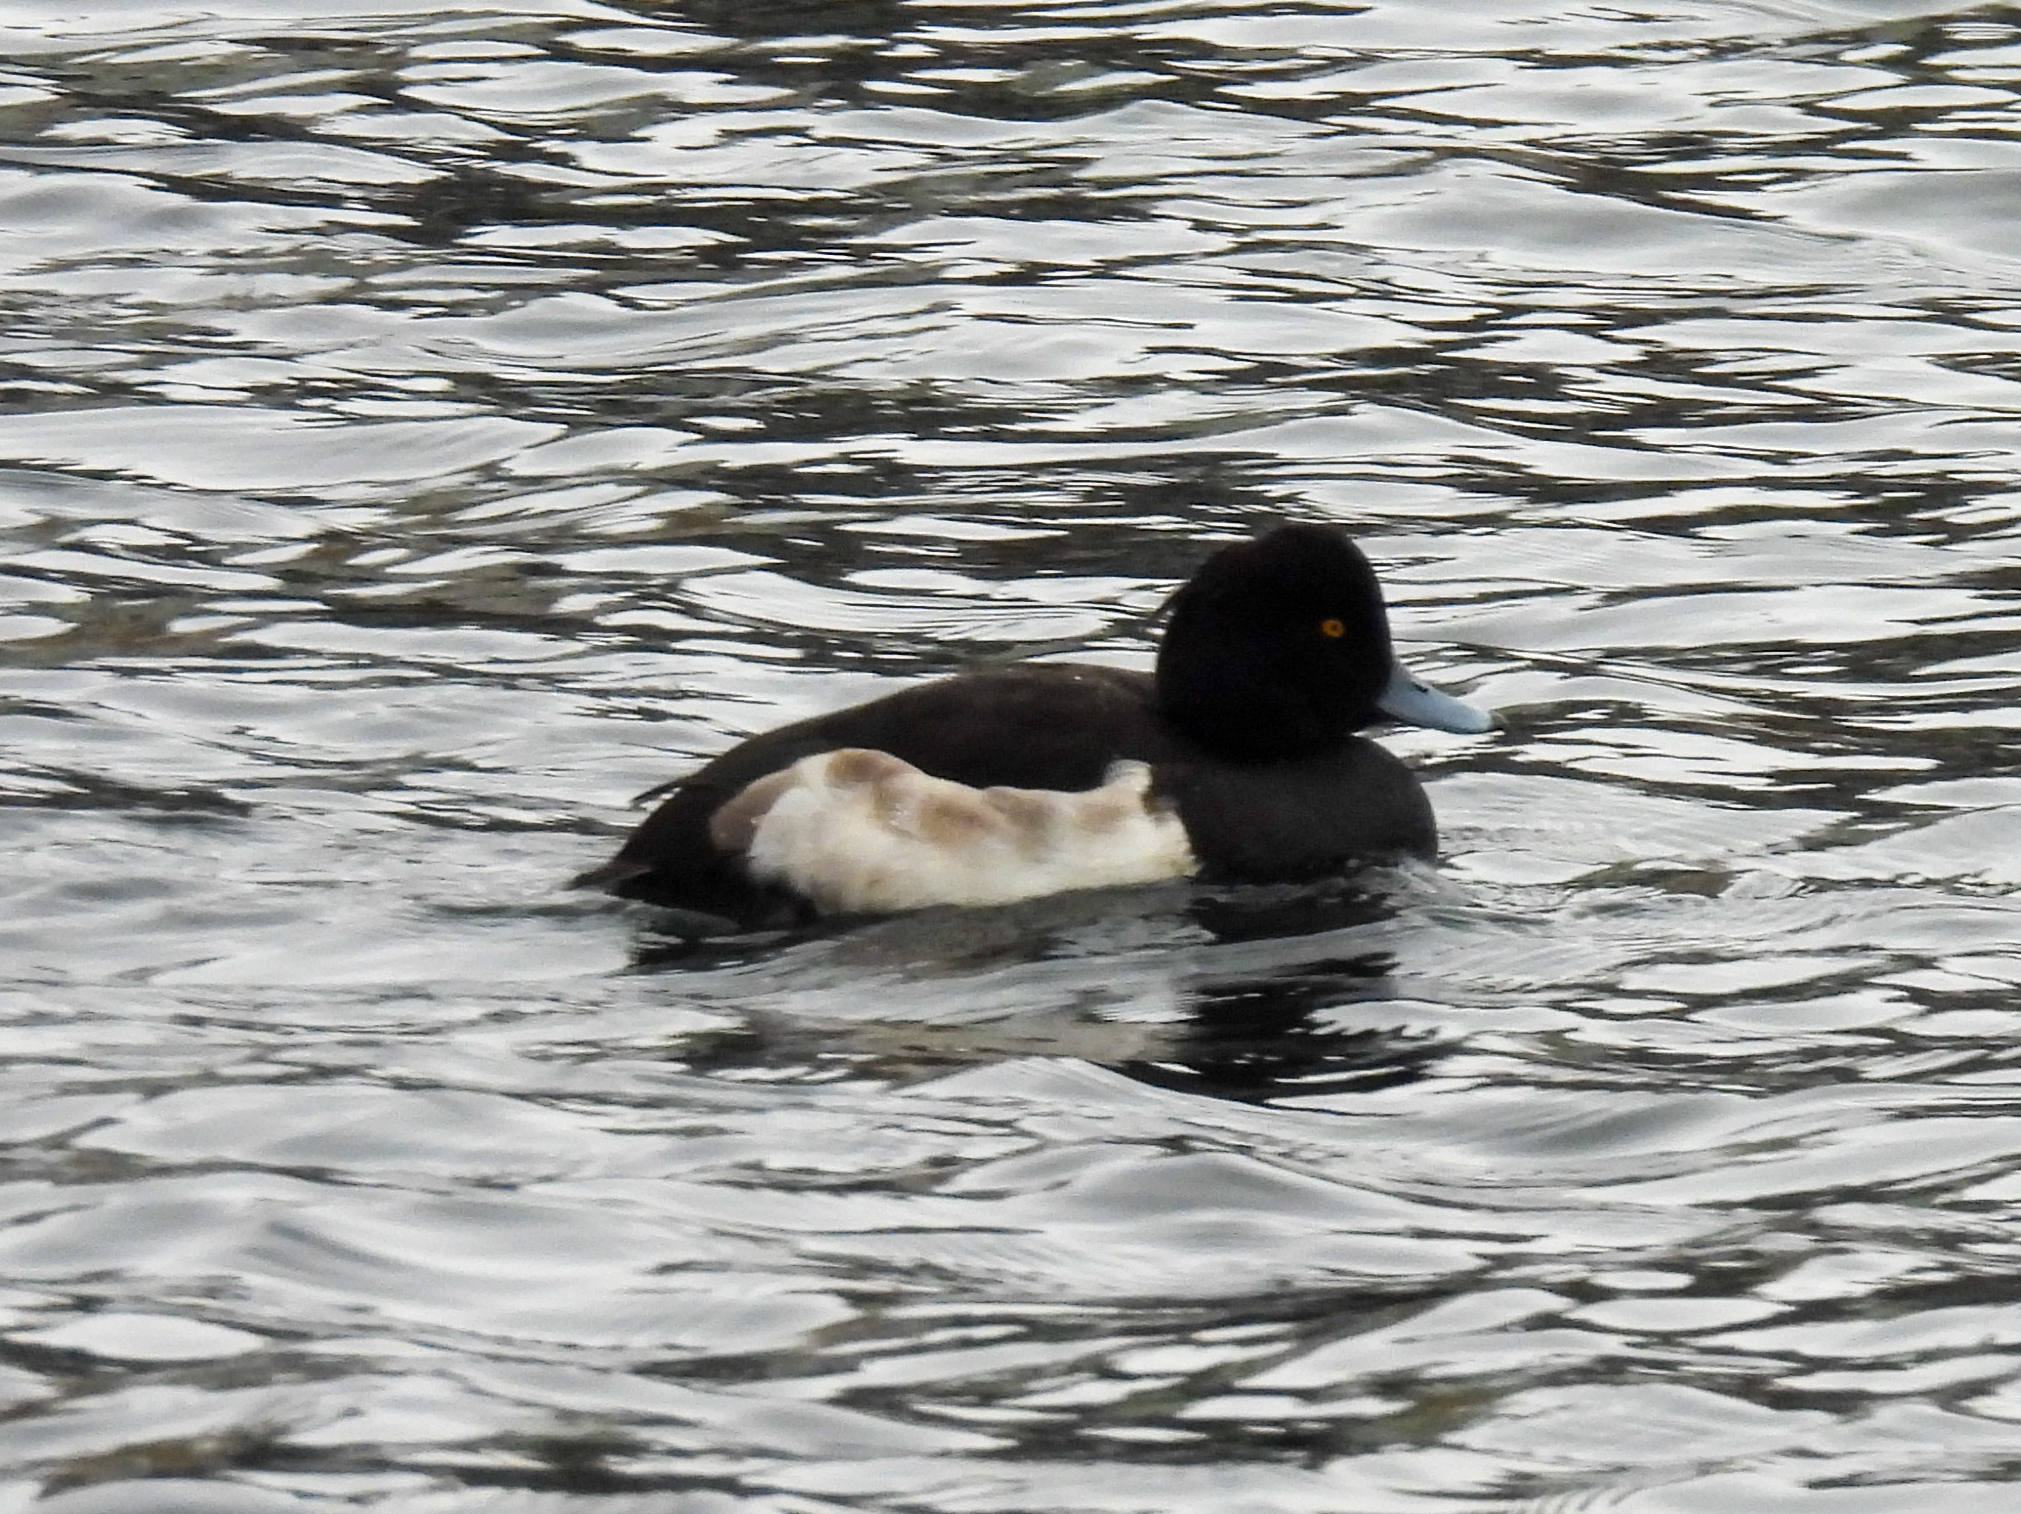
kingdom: Animalia
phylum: Chordata
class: Aves
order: Anseriformes
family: Anatidae
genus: Aythya
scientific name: Aythya fuligula
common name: Tufted duck
